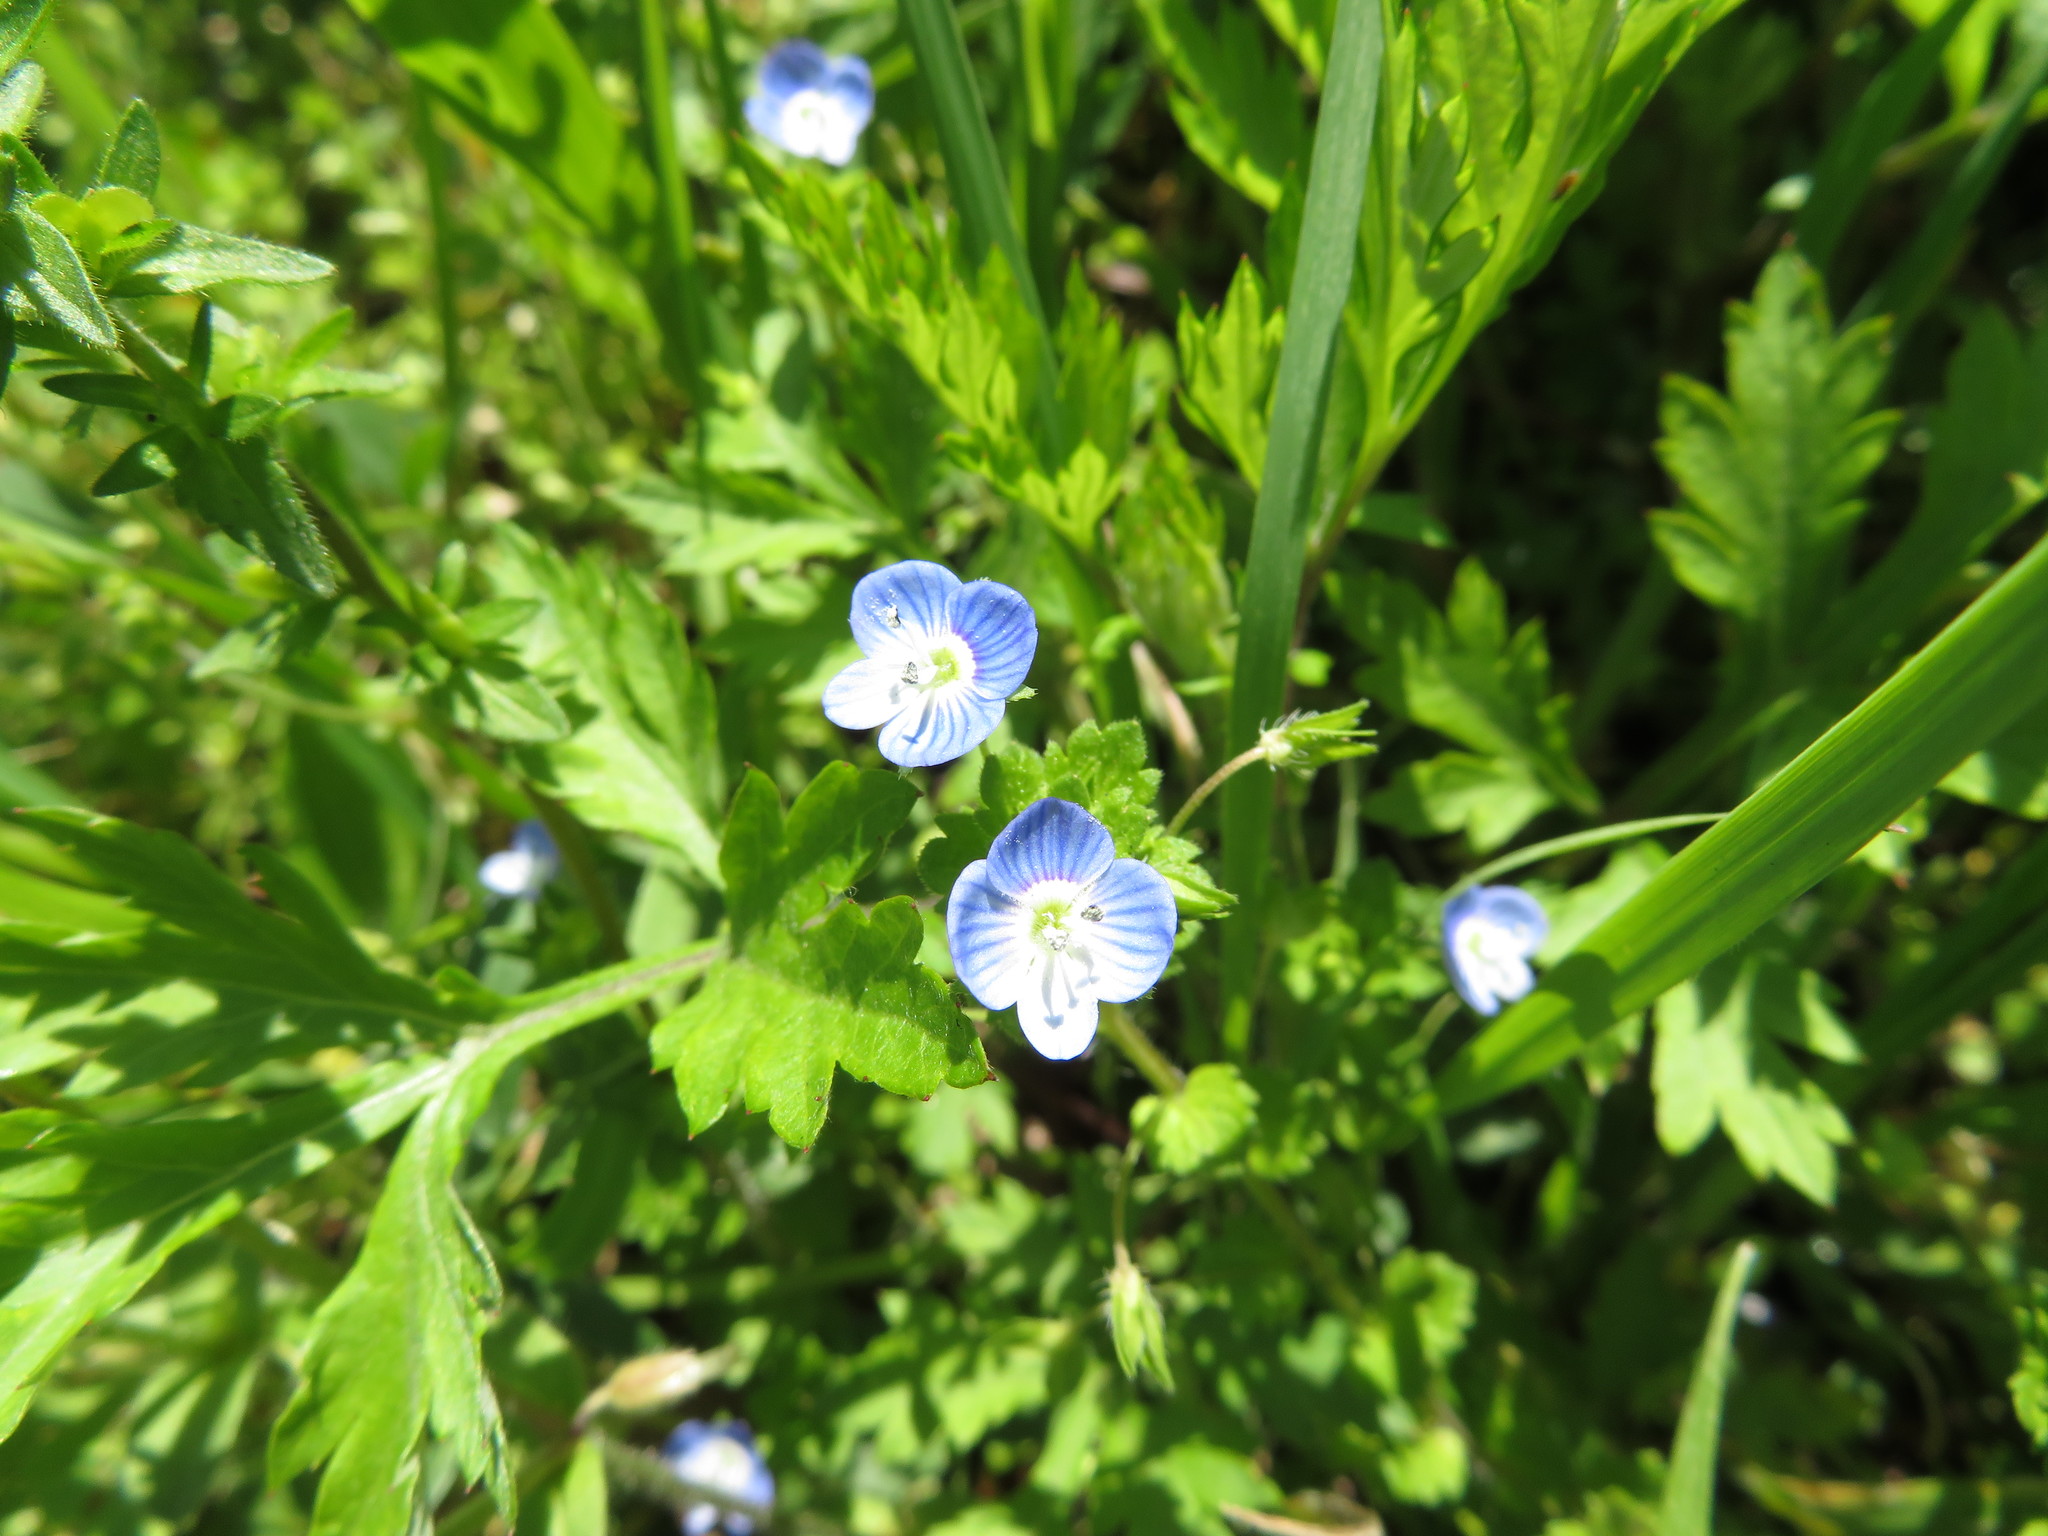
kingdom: Plantae
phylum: Tracheophyta
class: Magnoliopsida
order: Lamiales
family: Plantaginaceae
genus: Veronica
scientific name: Veronica persica
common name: Common field-speedwell
